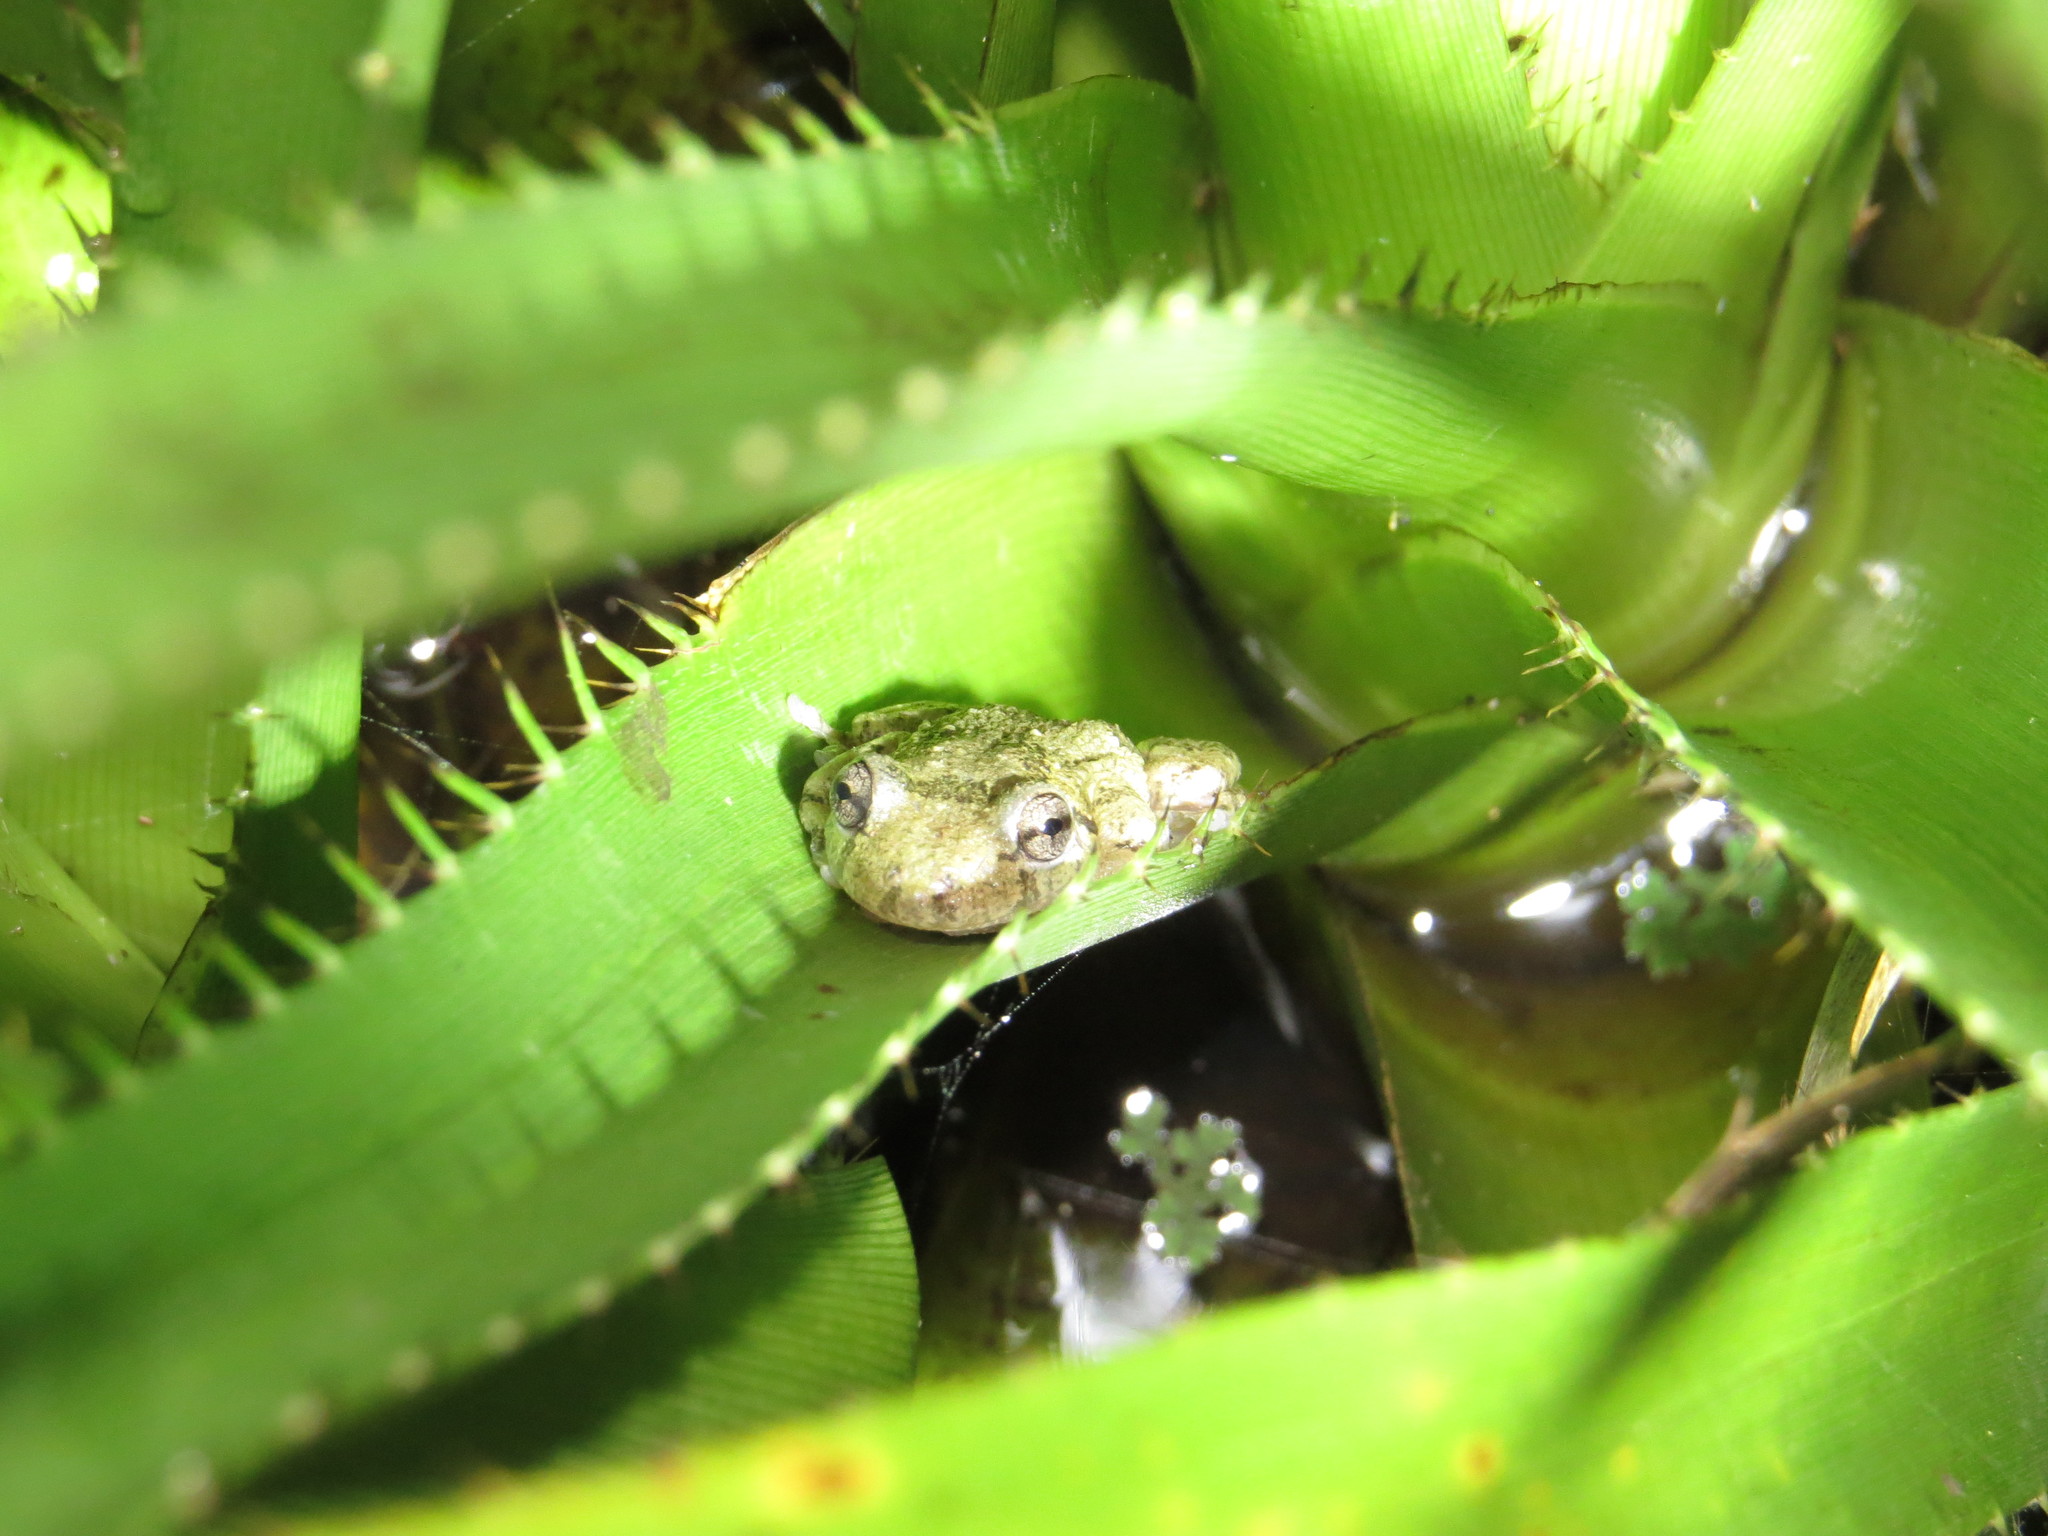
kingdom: Animalia
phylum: Chordata
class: Amphibia
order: Anura
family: Hylidae
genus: Scinax
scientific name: Scinax granulatus
